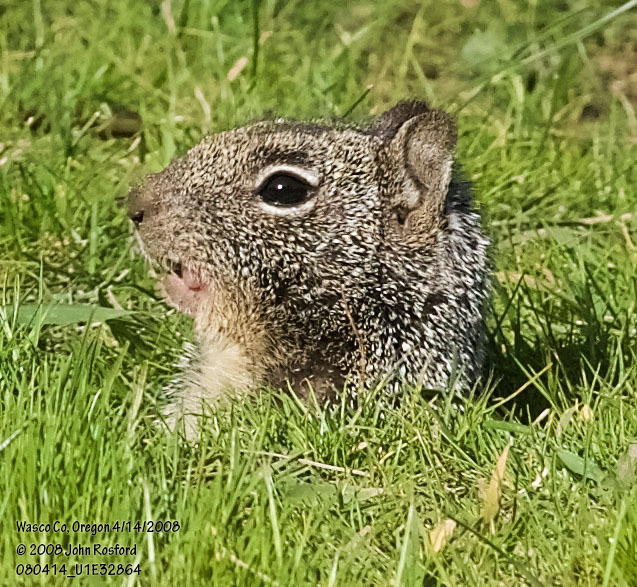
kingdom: Animalia
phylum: Chordata
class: Mammalia
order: Rodentia
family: Sciuridae
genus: Otospermophilus
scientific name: Otospermophilus beecheyi
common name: California ground squirrel
